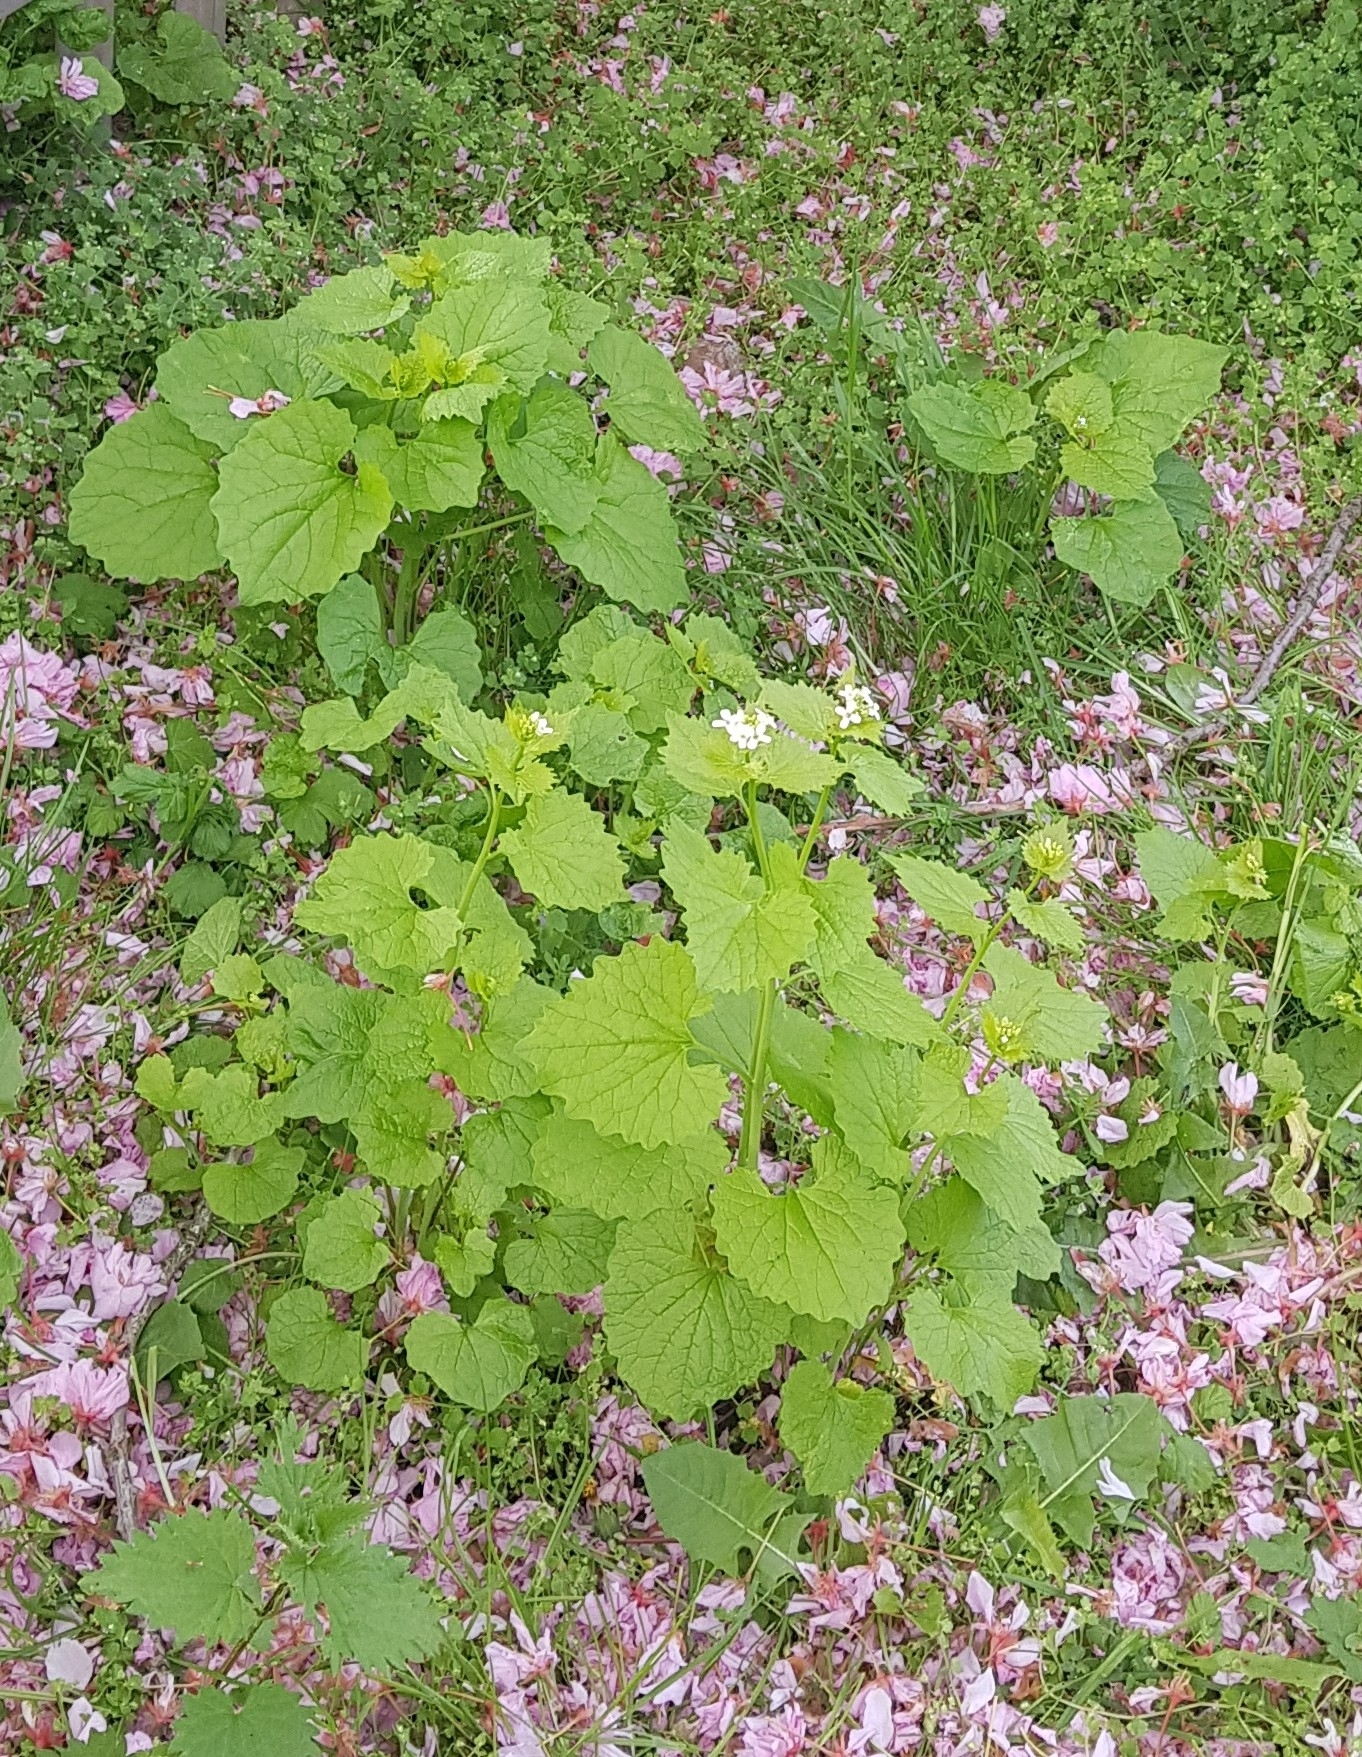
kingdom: Plantae
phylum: Tracheophyta
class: Magnoliopsida
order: Brassicales
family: Brassicaceae
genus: Alliaria
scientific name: Alliaria petiolata
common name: Garlic mustard
